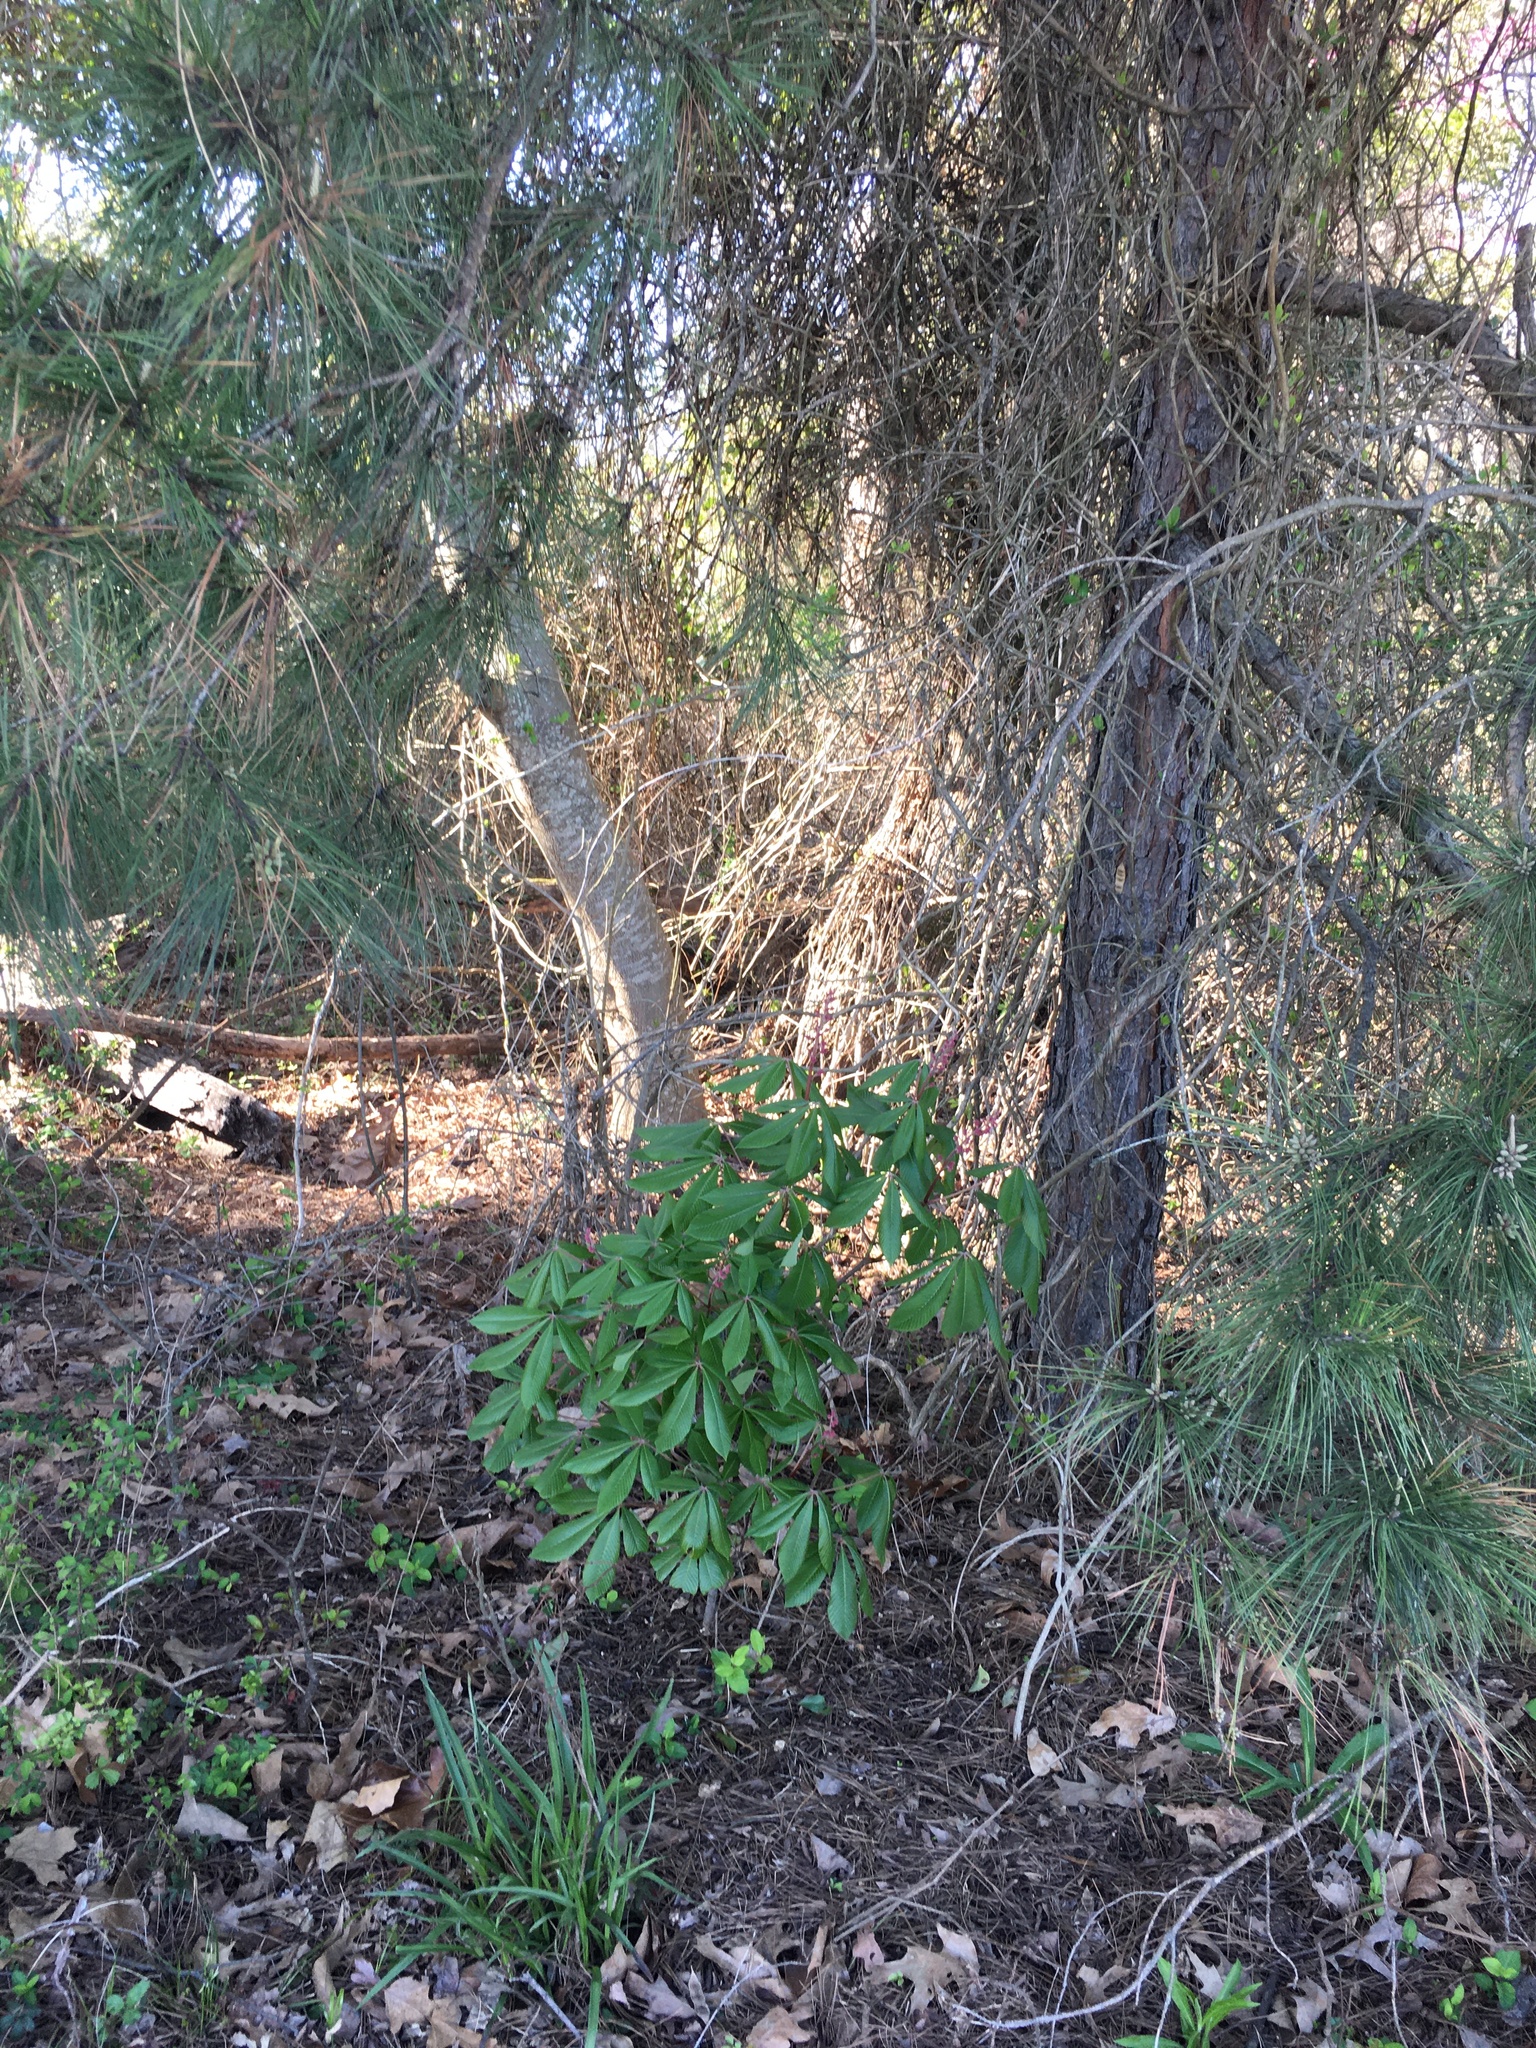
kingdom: Plantae
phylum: Tracheophyta
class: Magnoliopsida
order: Sapindales
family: Sapindaceae
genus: Aesculus
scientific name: Aesculus pavia
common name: Red buckeye
